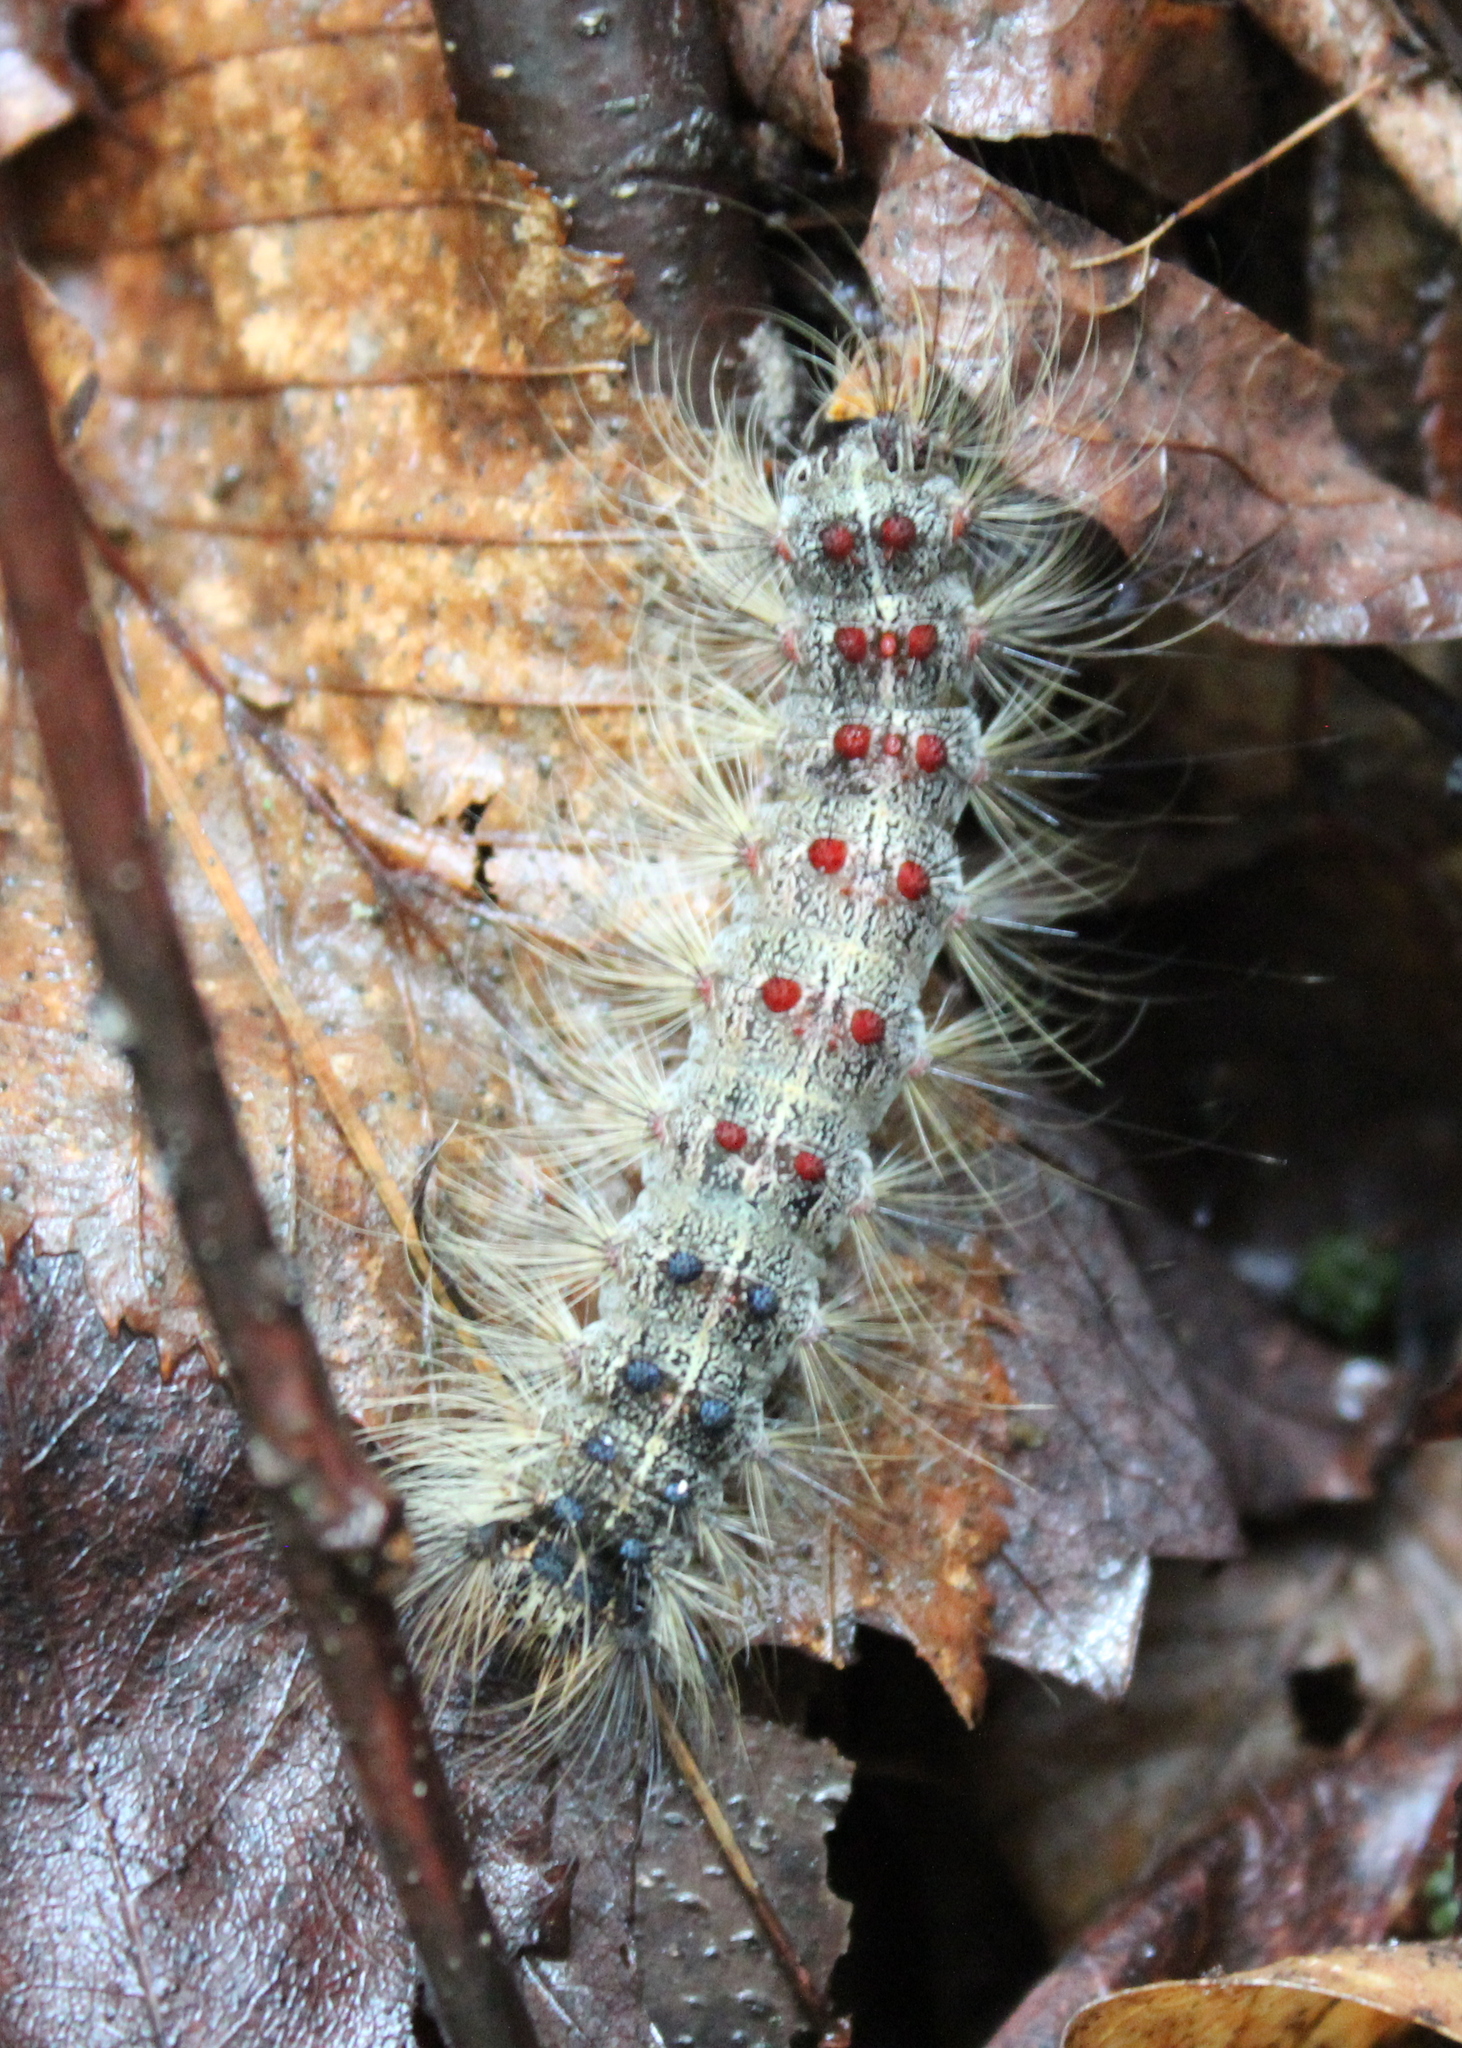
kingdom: Animalia
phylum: Arthropoda
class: Insecta
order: Lepidoptera
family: Erebidae
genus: Lymantria
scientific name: Lymantria dispar
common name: Gypsy moth
